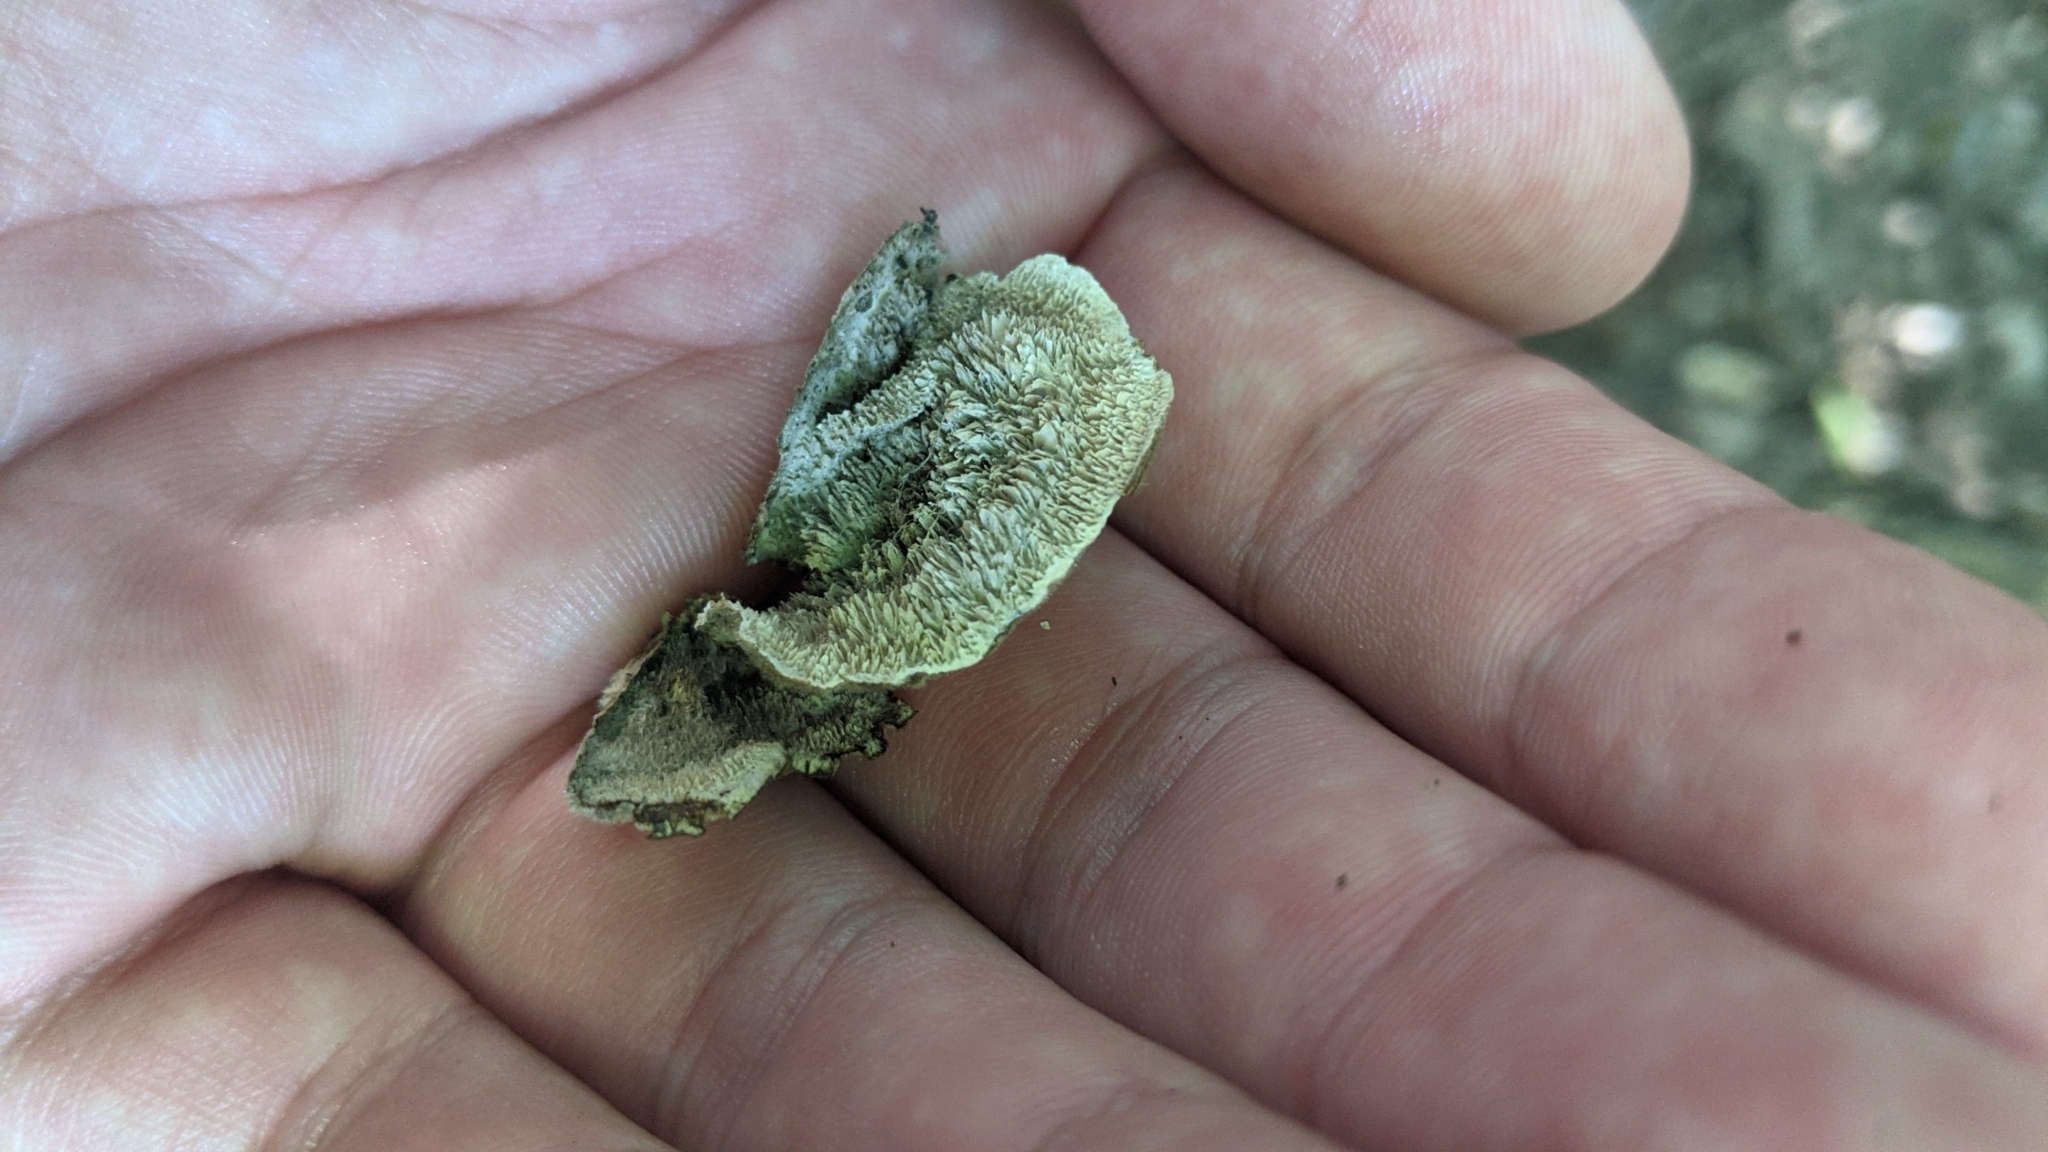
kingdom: Fungi
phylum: Basidiomycota
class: Agaricomycetes
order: Polyporales
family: Cerrenaceae
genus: Cerrena
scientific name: Cerrena unicolor
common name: Mossy maze polypore
